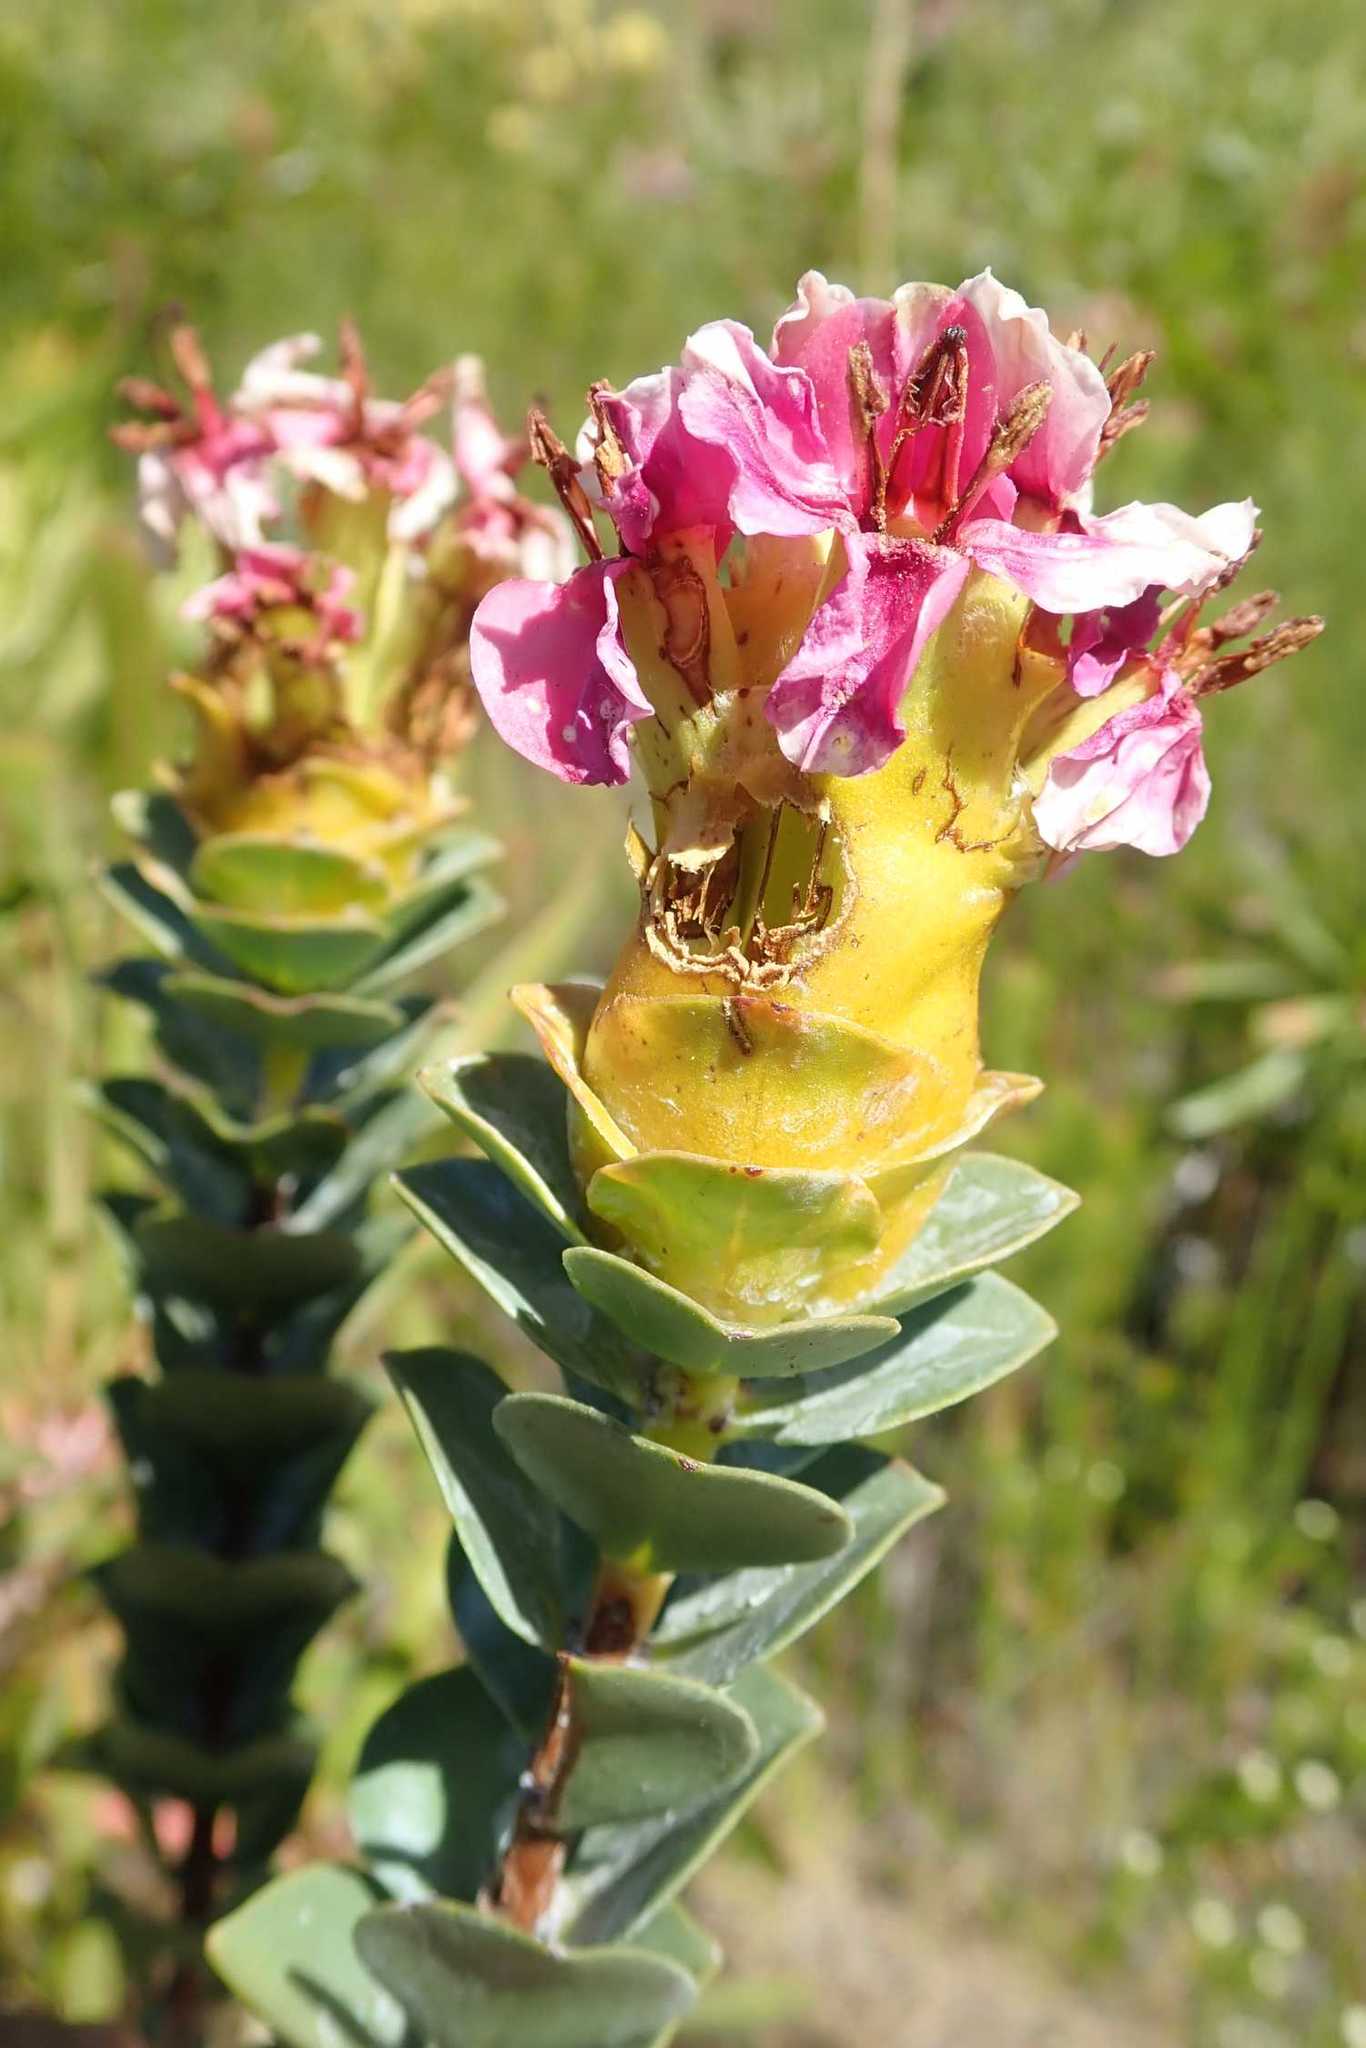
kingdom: Plantae
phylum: Tracheophyta
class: Magnoliopsida
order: Myrtales
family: Penaeaceae
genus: Saltera
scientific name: Saltera sarcocolla
